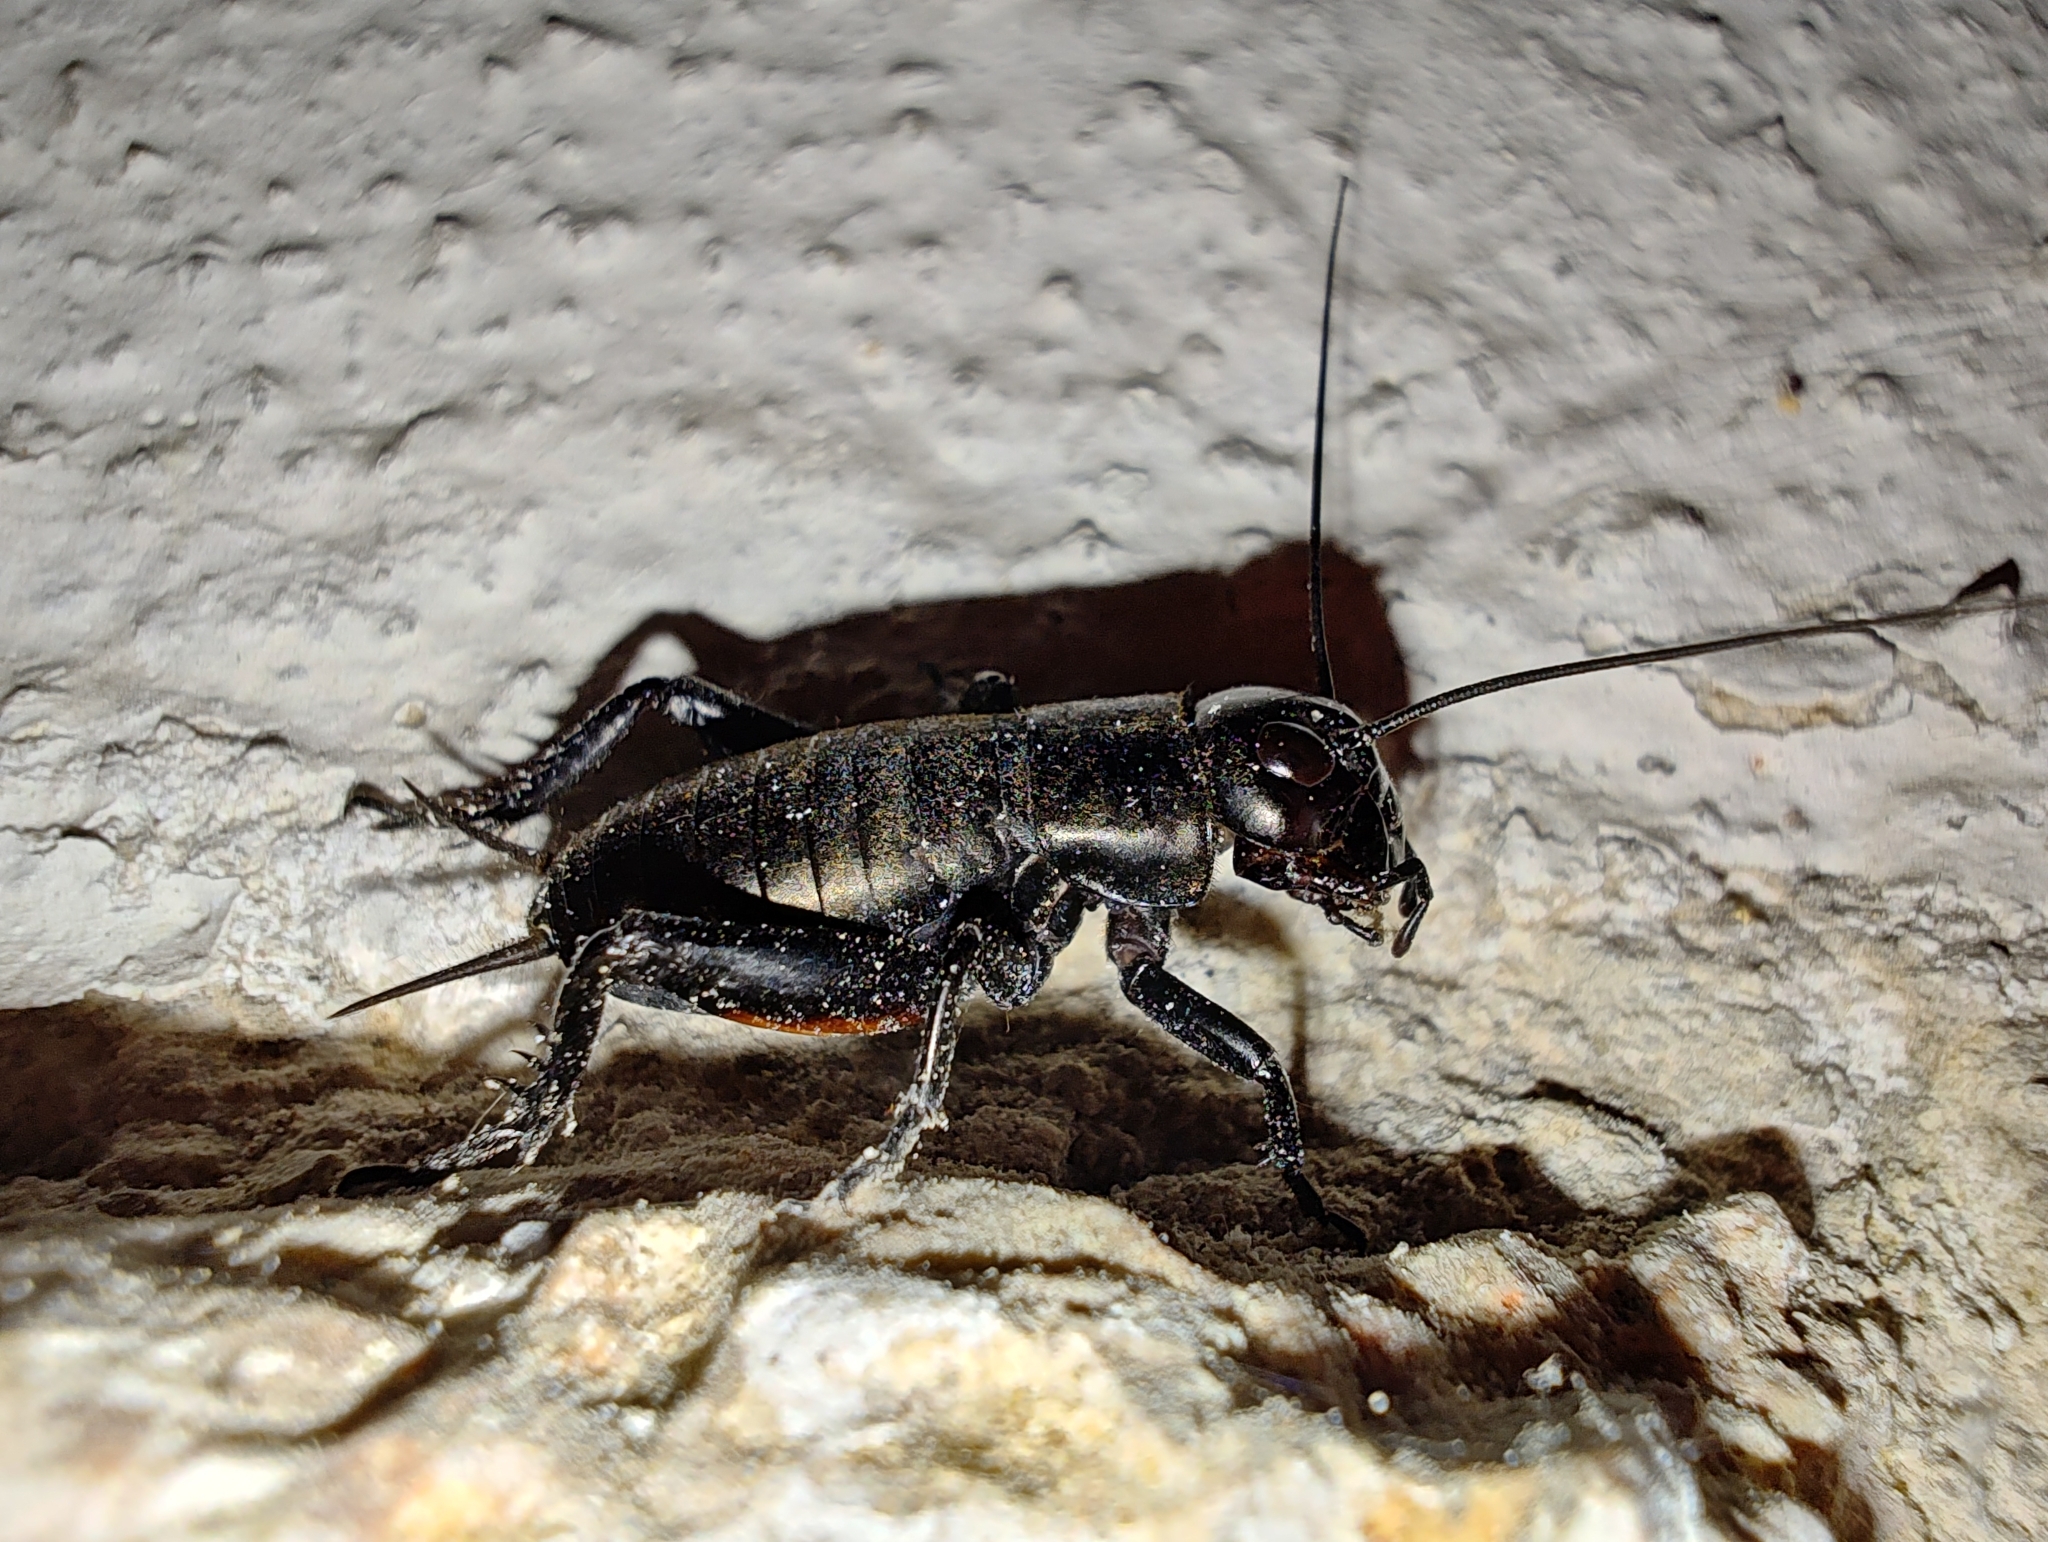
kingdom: Animalia
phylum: Arthropoda
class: Insecta
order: Orthoptera
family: Gryllidae
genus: Gryllus
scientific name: Gryllus campestris
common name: Field cricket
